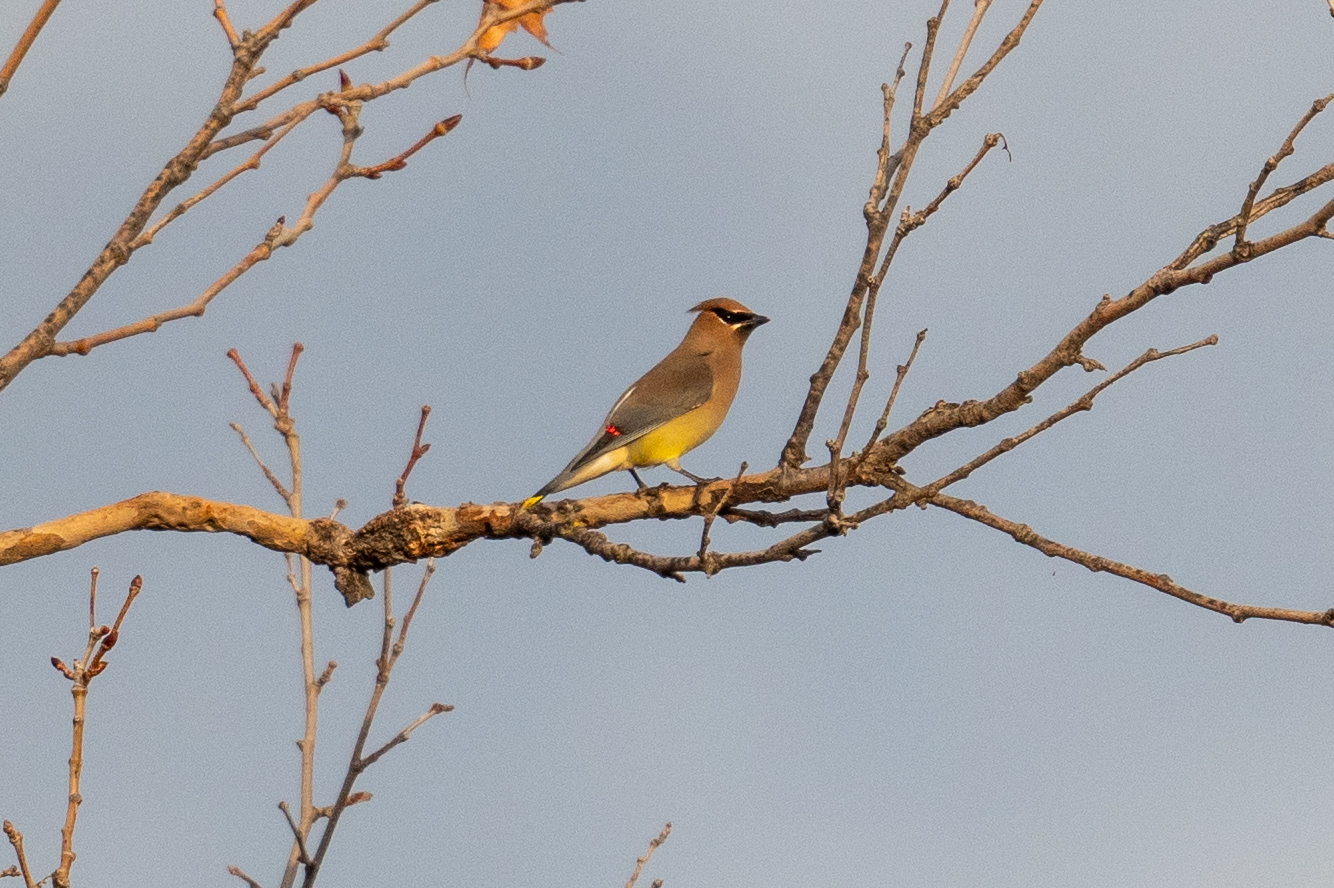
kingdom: Animalia
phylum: Chordata
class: Aves
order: Passeriformes
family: Bombycillidae
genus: Bombycilla
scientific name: Bombycilla cedrorum
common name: Cedar waxwing
